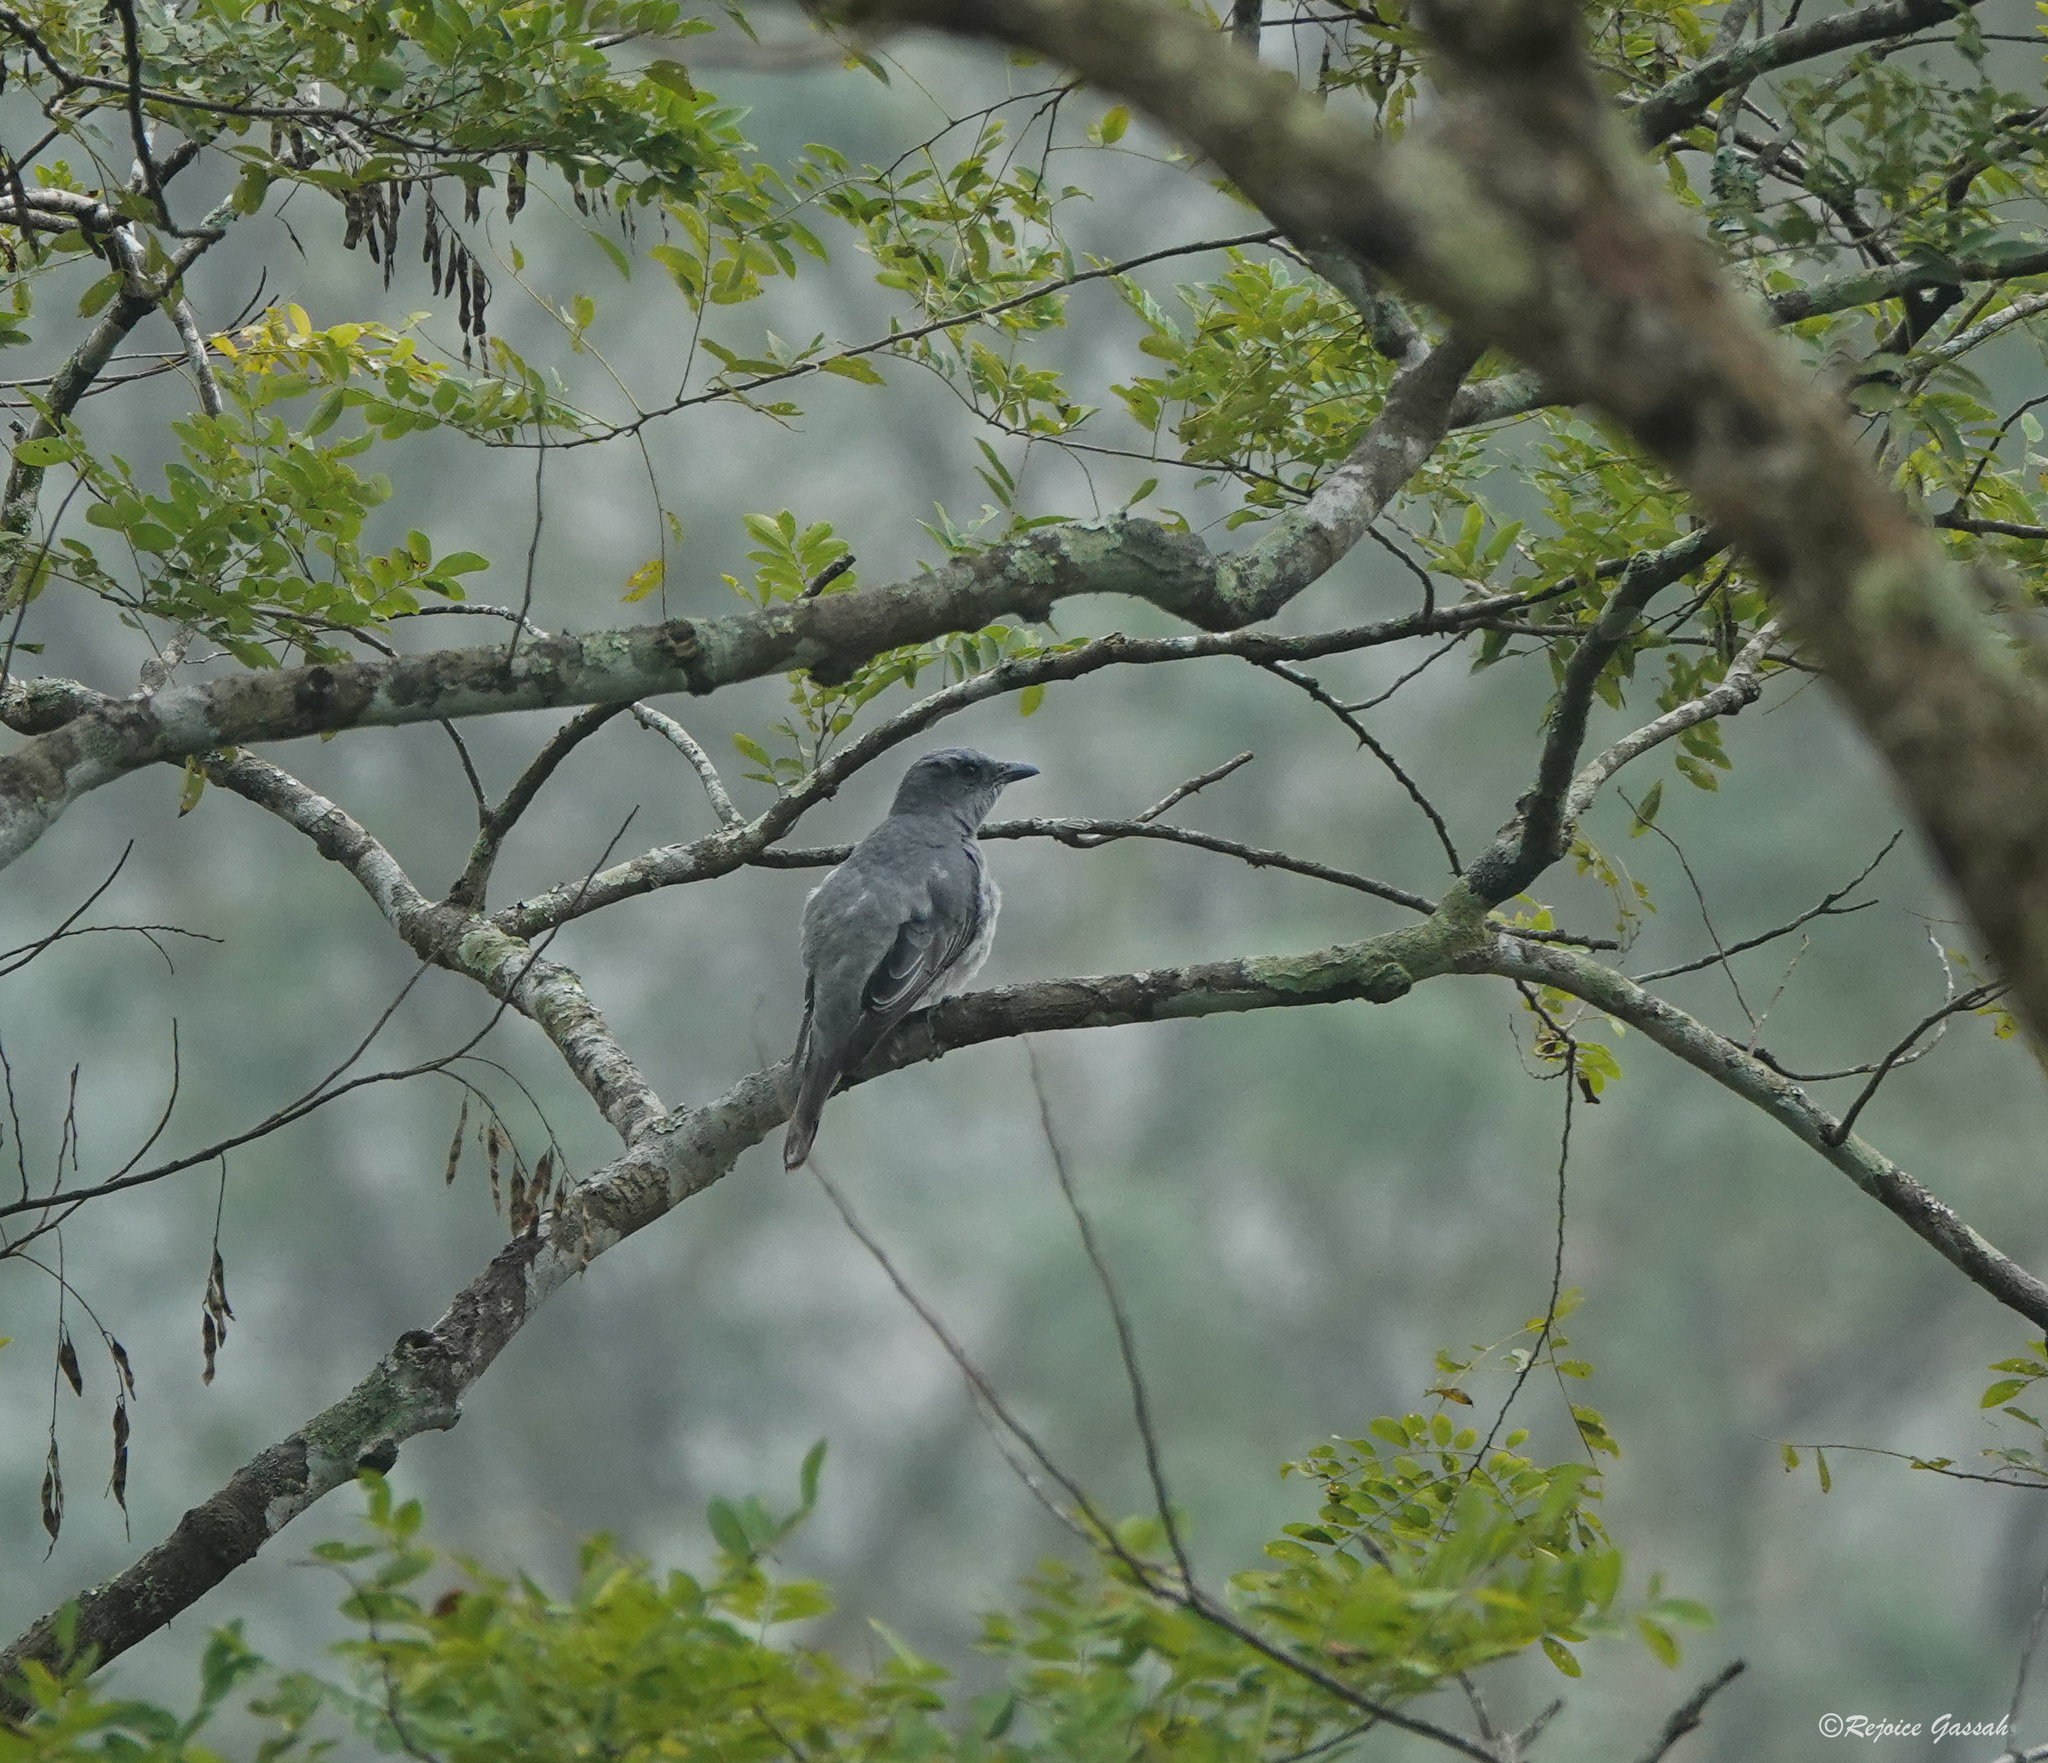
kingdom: Animalia
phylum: Chordata
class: Aves
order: Passeriformes
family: Campephagidae
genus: Coracina
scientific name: Coracina macei
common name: Large cuckooshrike
